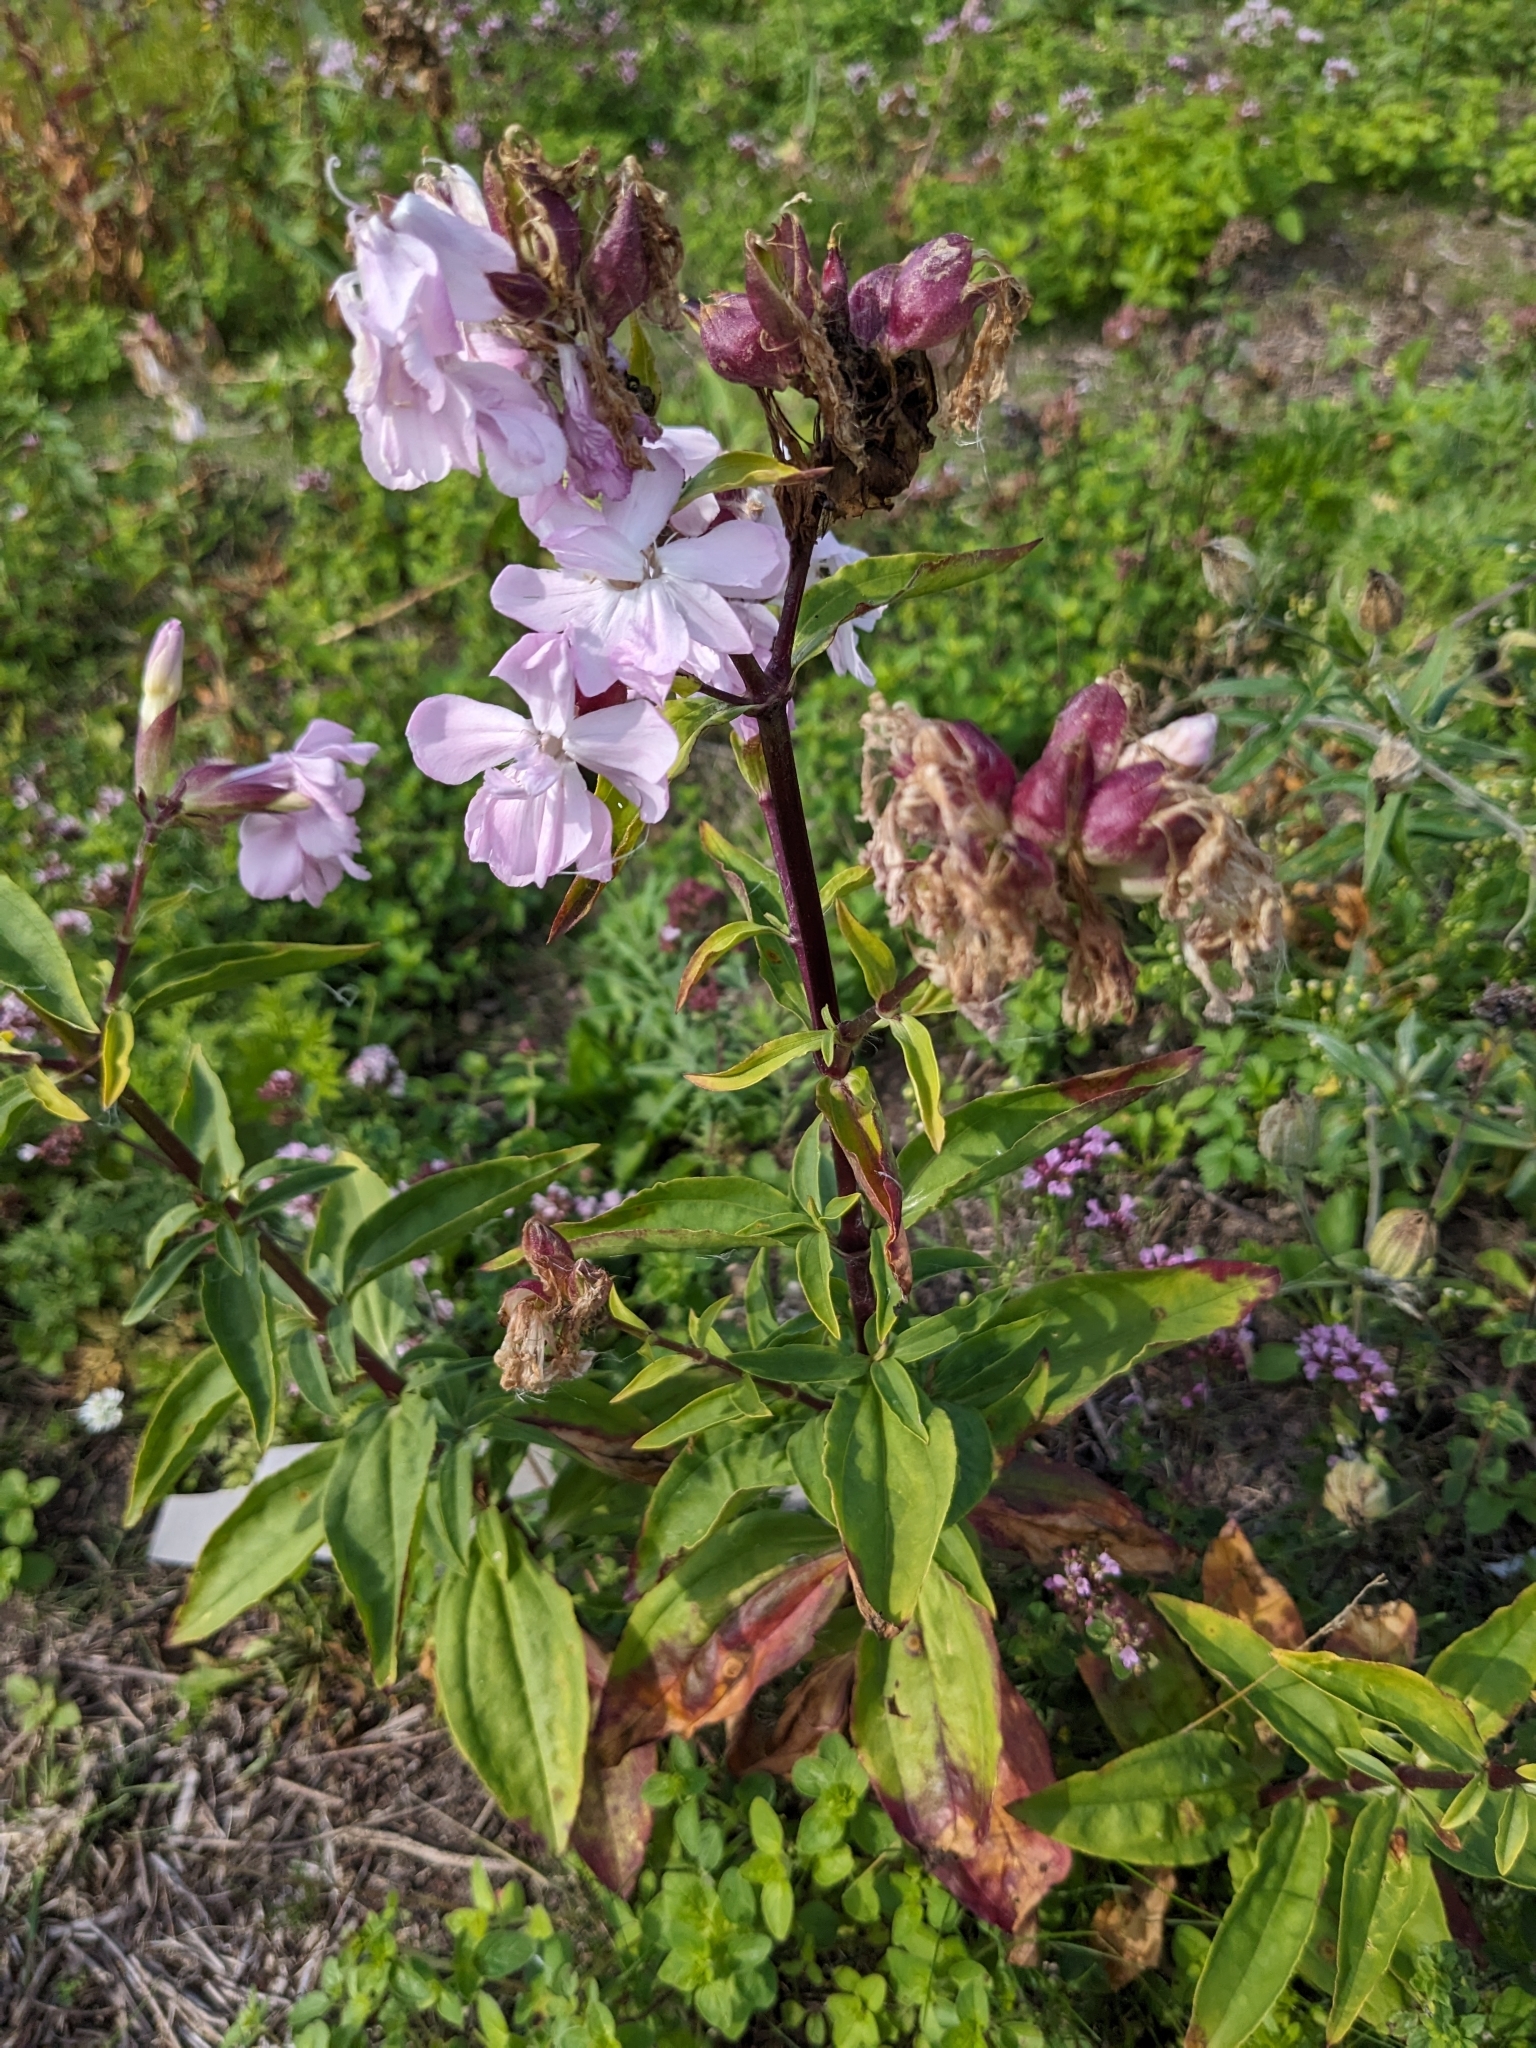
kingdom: Plantae
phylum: Tracheophyta
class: Magnoliopsida
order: Caryophyllales
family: Caryophyllaceae
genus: Saponaria
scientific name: Saponaria officinalis
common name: Soapwort
